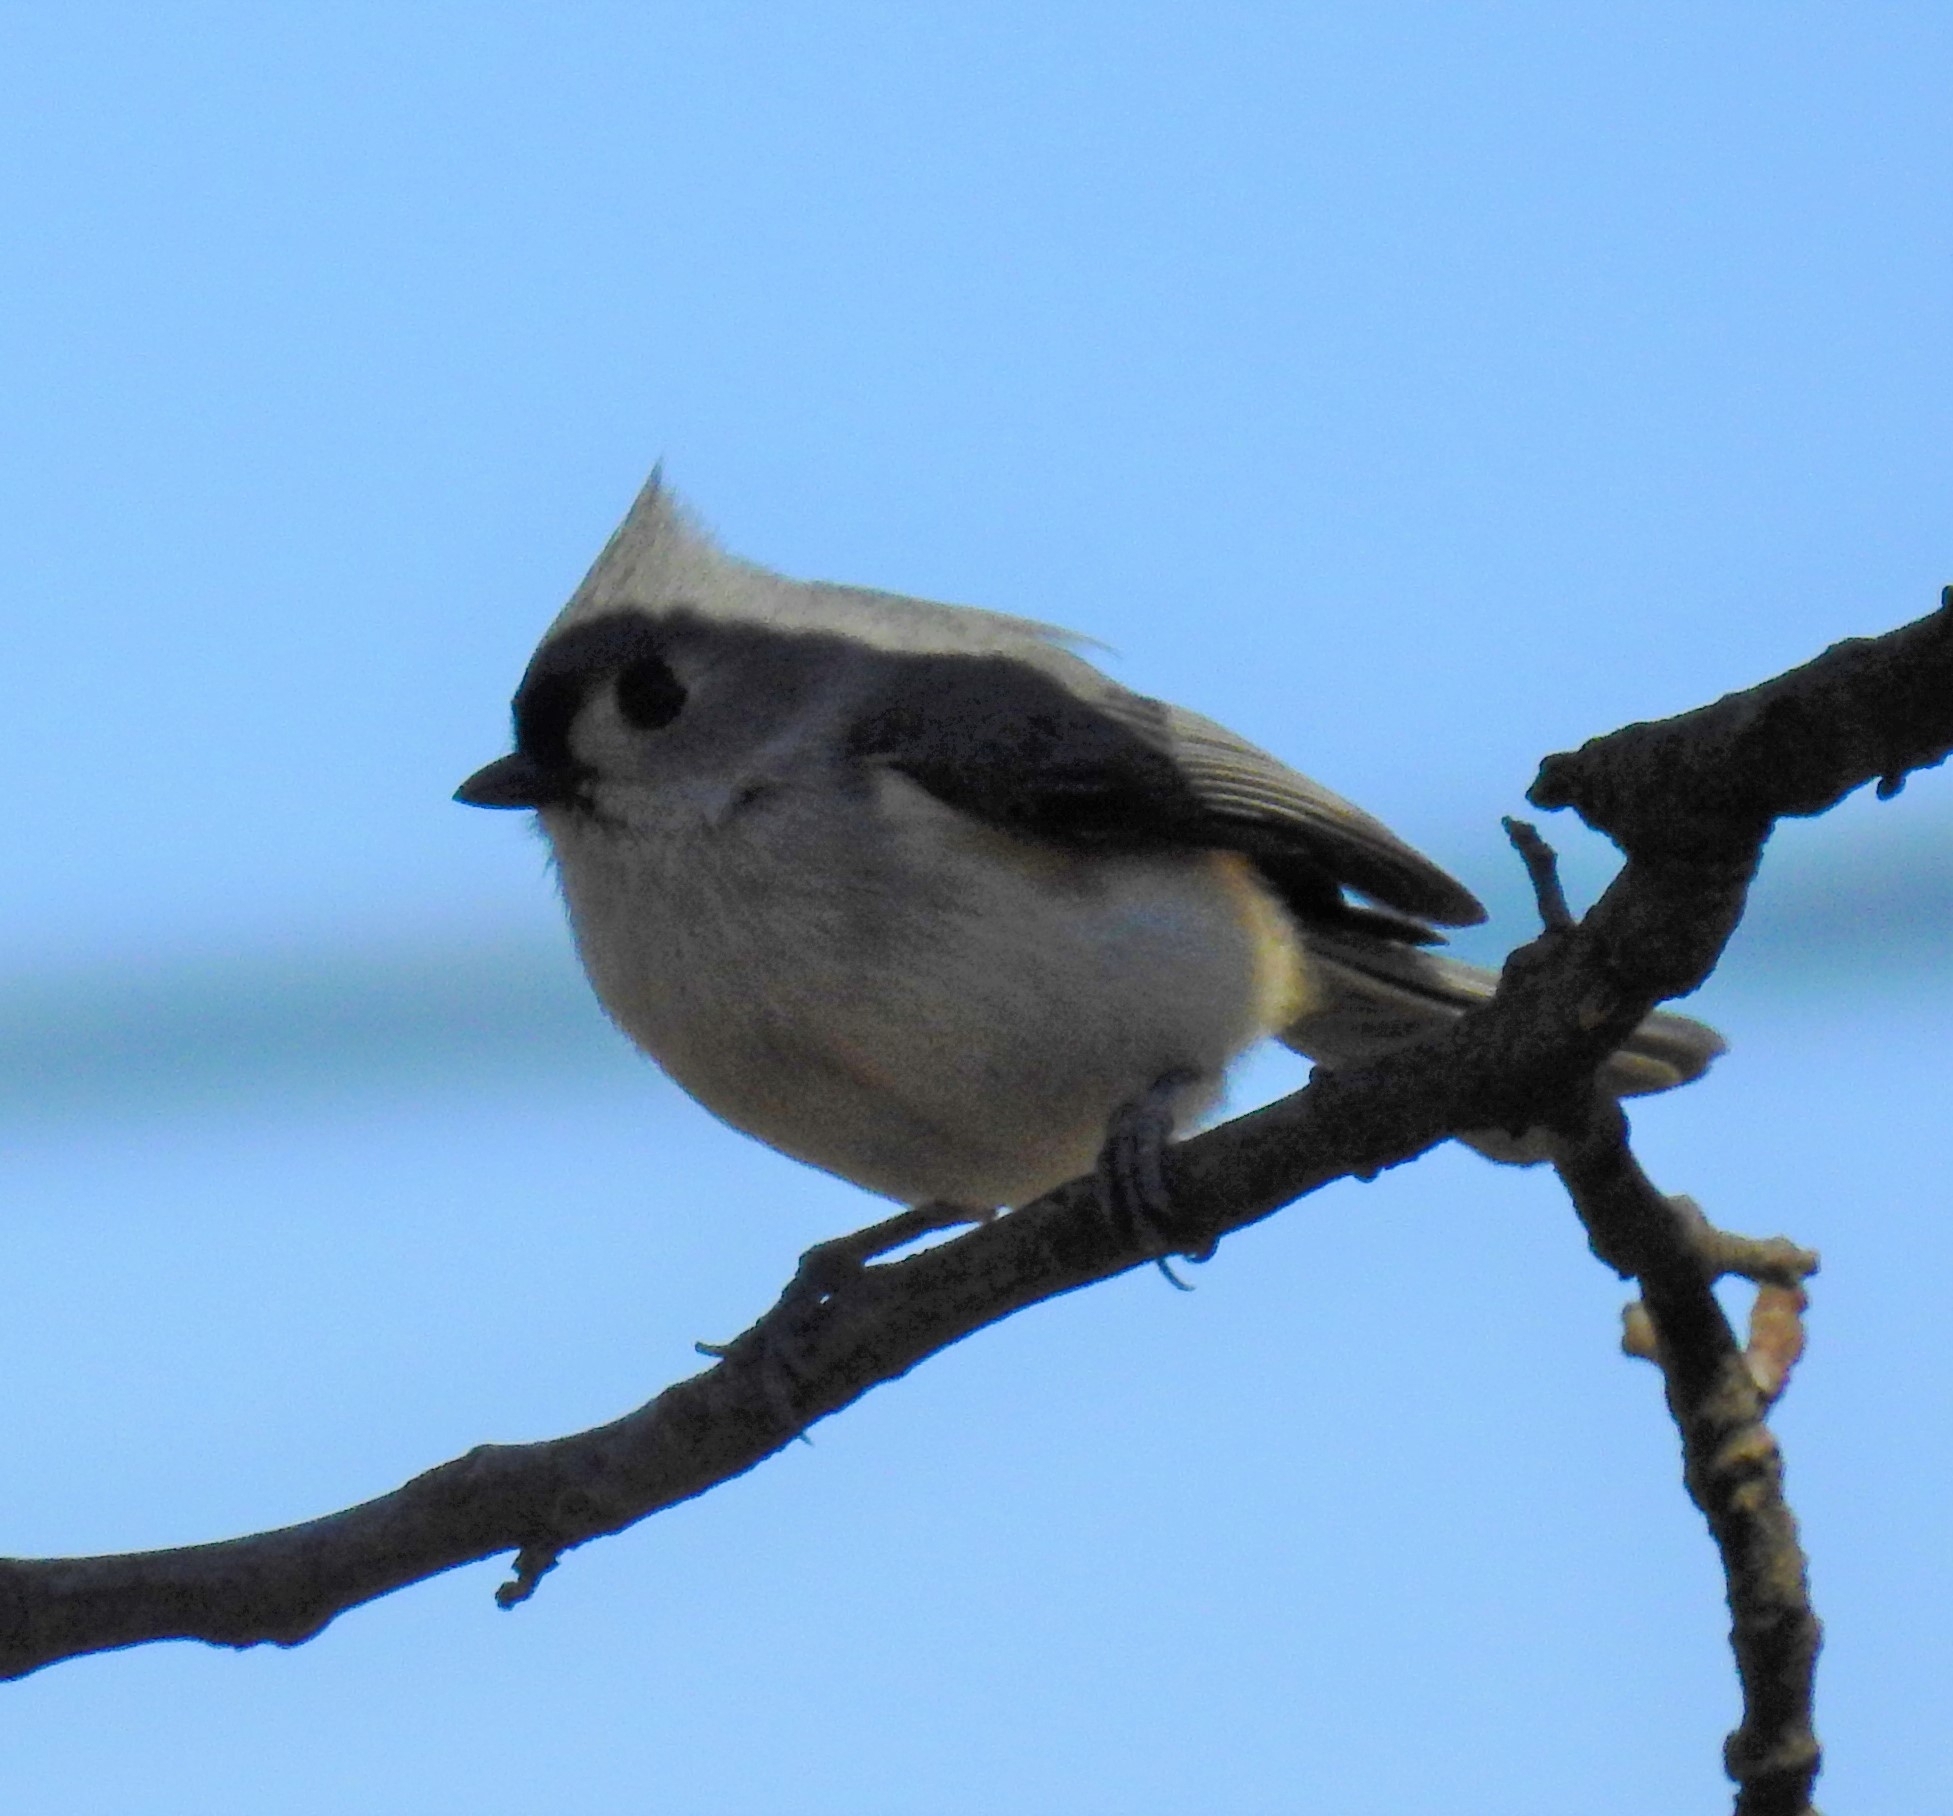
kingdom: Animalia
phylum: Chordata
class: Aves
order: Passeriformes
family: Paridae
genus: Baeolophus
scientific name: Baeolophus bicolor
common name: Tufted titmouse
